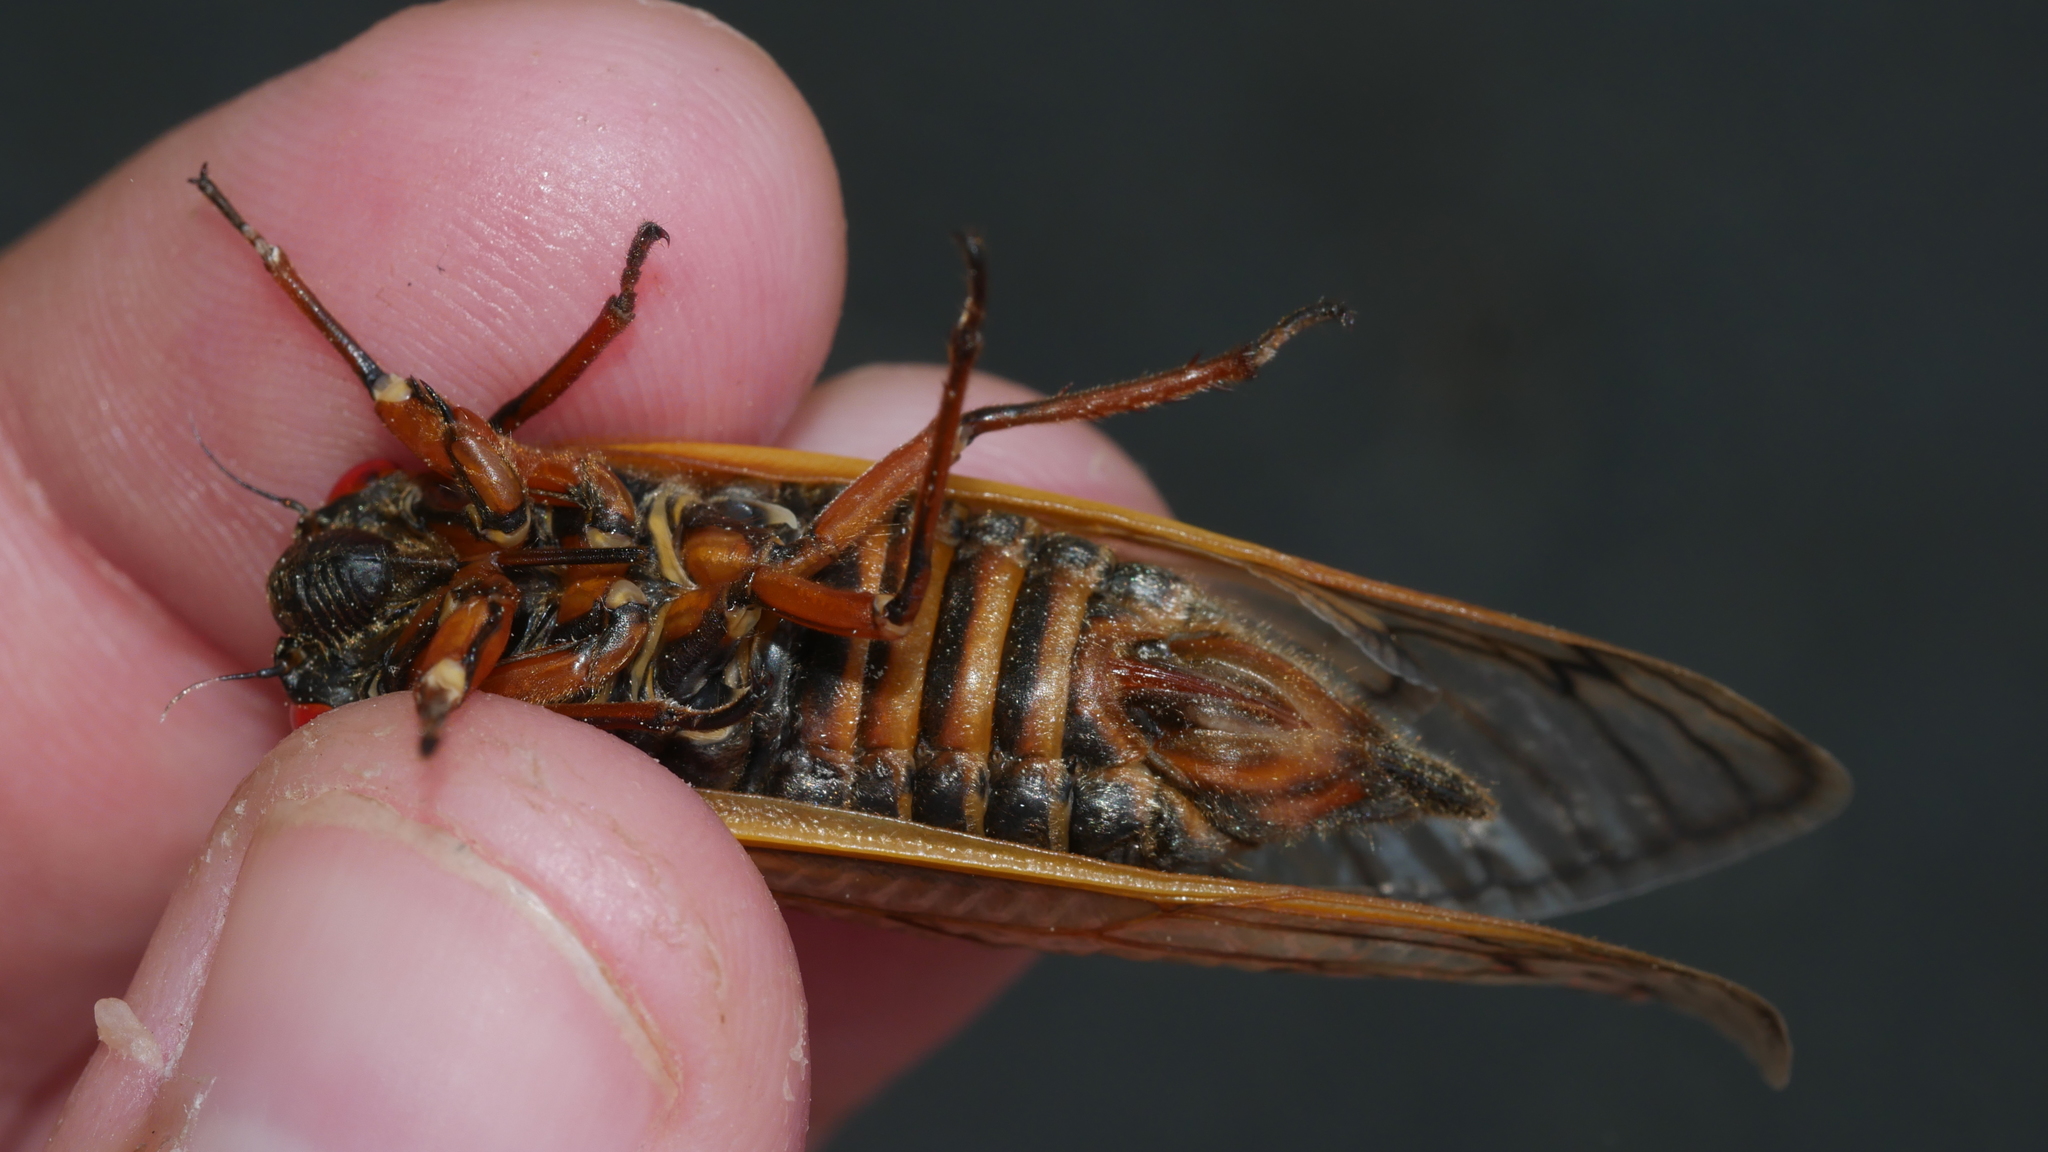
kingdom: Animalia
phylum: Arthropoda
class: Insecta
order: Hemiptera
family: Cicadidae
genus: Magicicada
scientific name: Magicicada septendecim
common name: Periodical cicada
